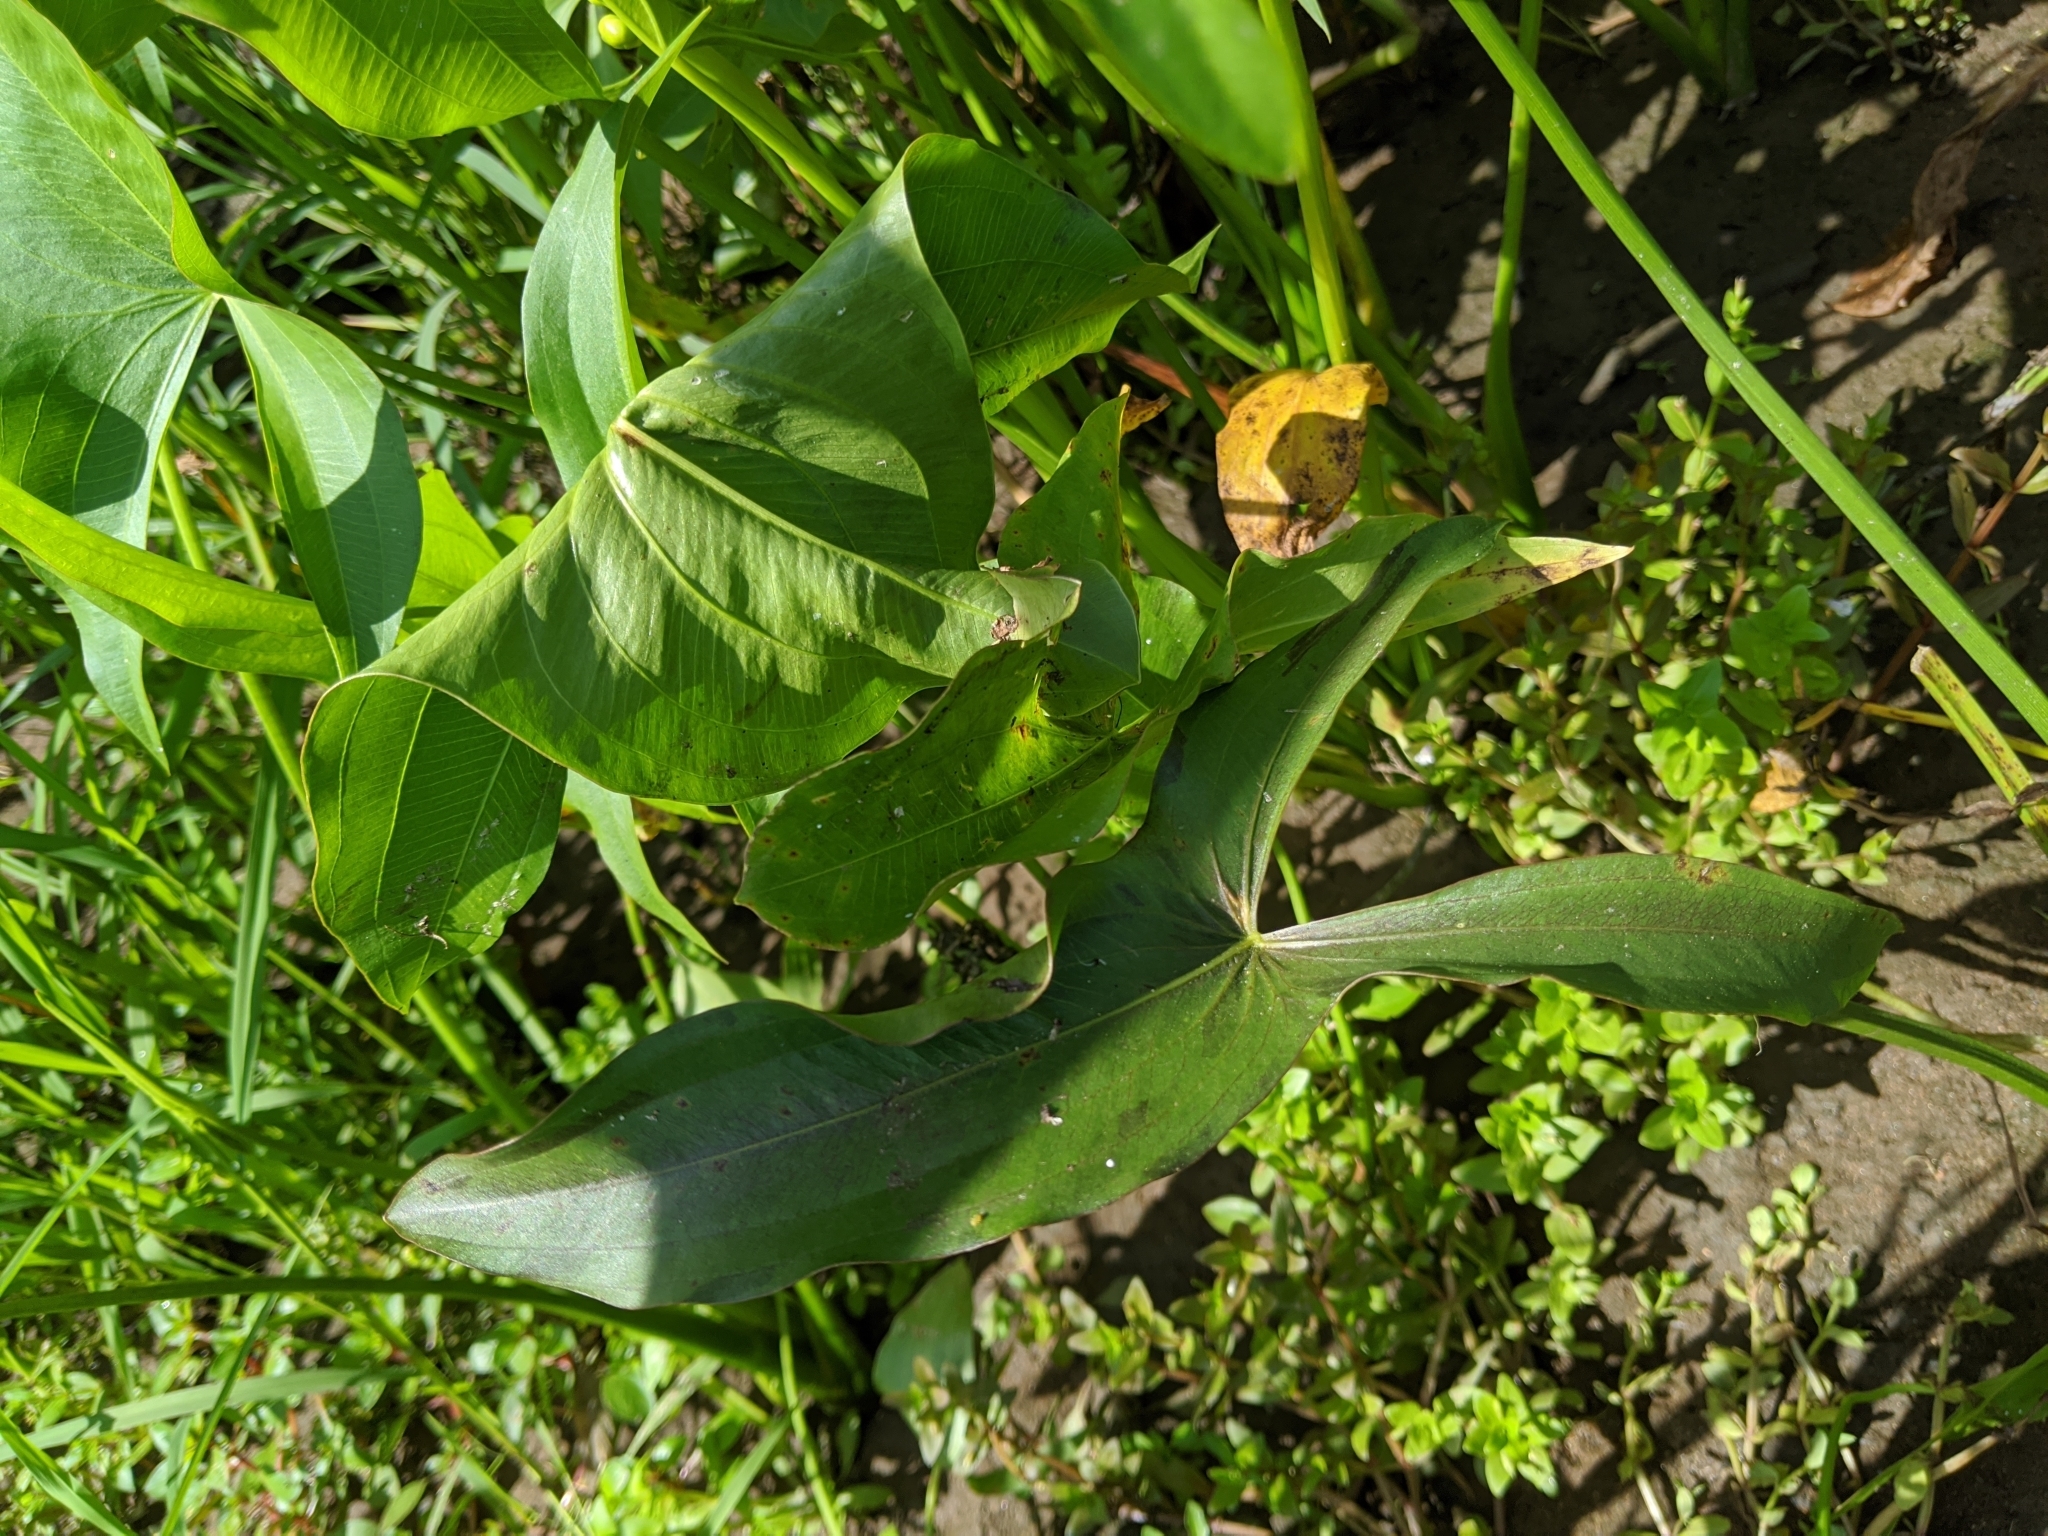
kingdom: Plantae
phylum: Tracheophyta
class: Liliopsida
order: Alismatales
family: Alismataceae
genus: Sagittaria
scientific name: Sagittaria latifolia
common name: Duck-potato
